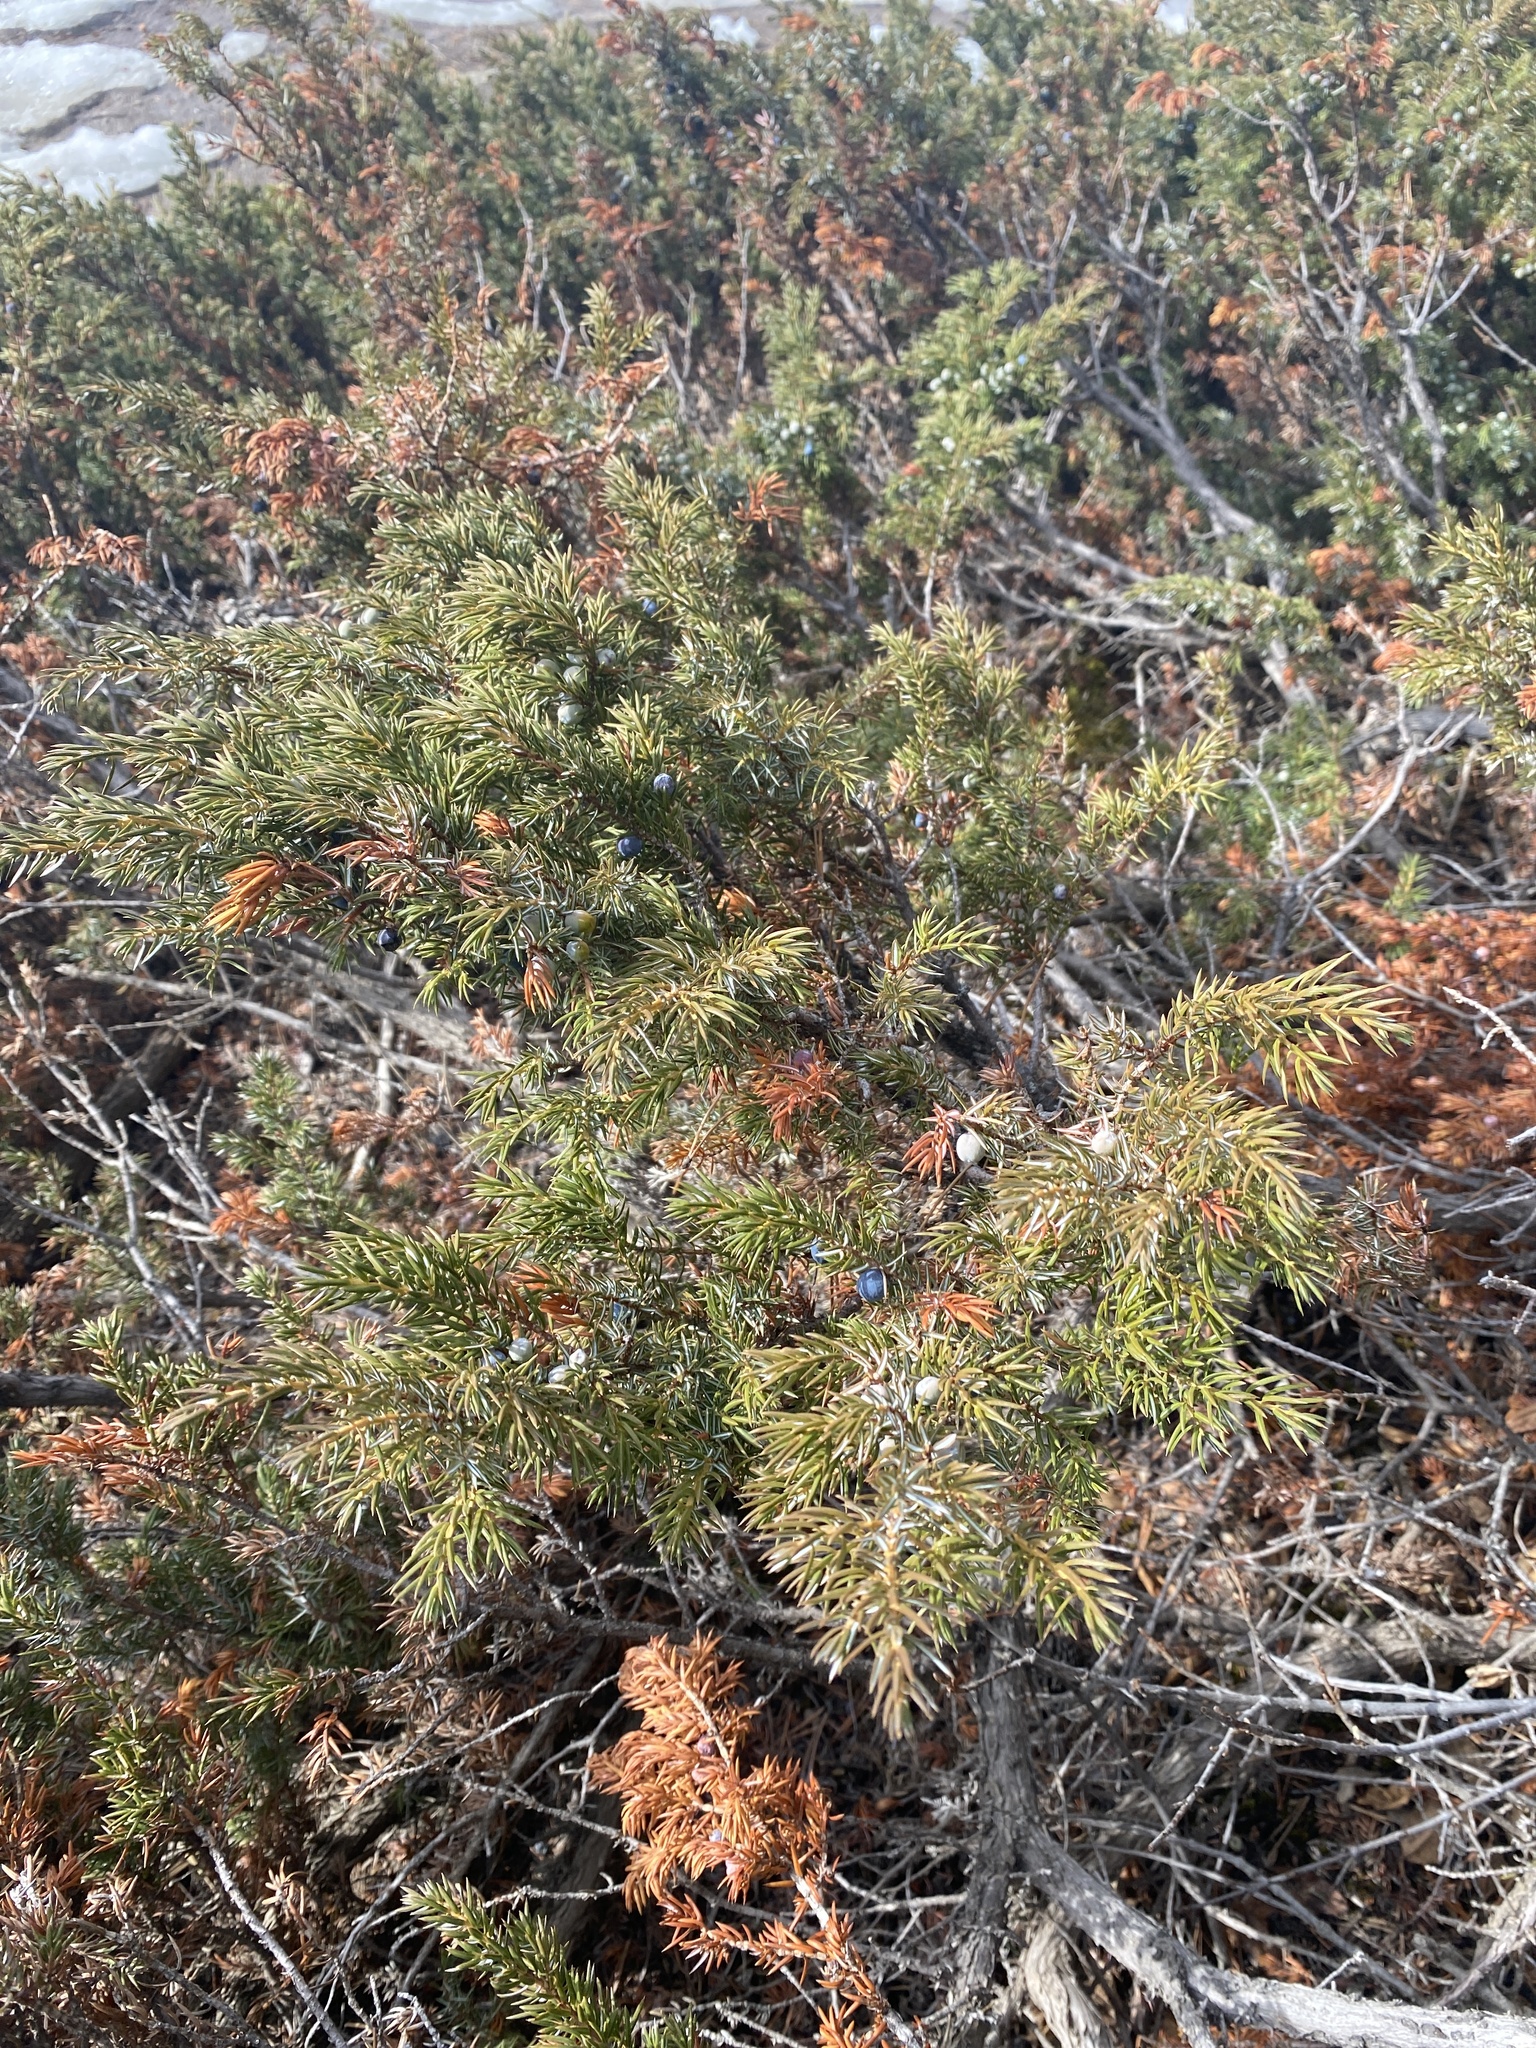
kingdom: Plantae
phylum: Tracheophyta
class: Pinopsida
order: Pinales
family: Cupressaceae
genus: Juniperus
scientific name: Juniperus communis
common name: Common juniper
